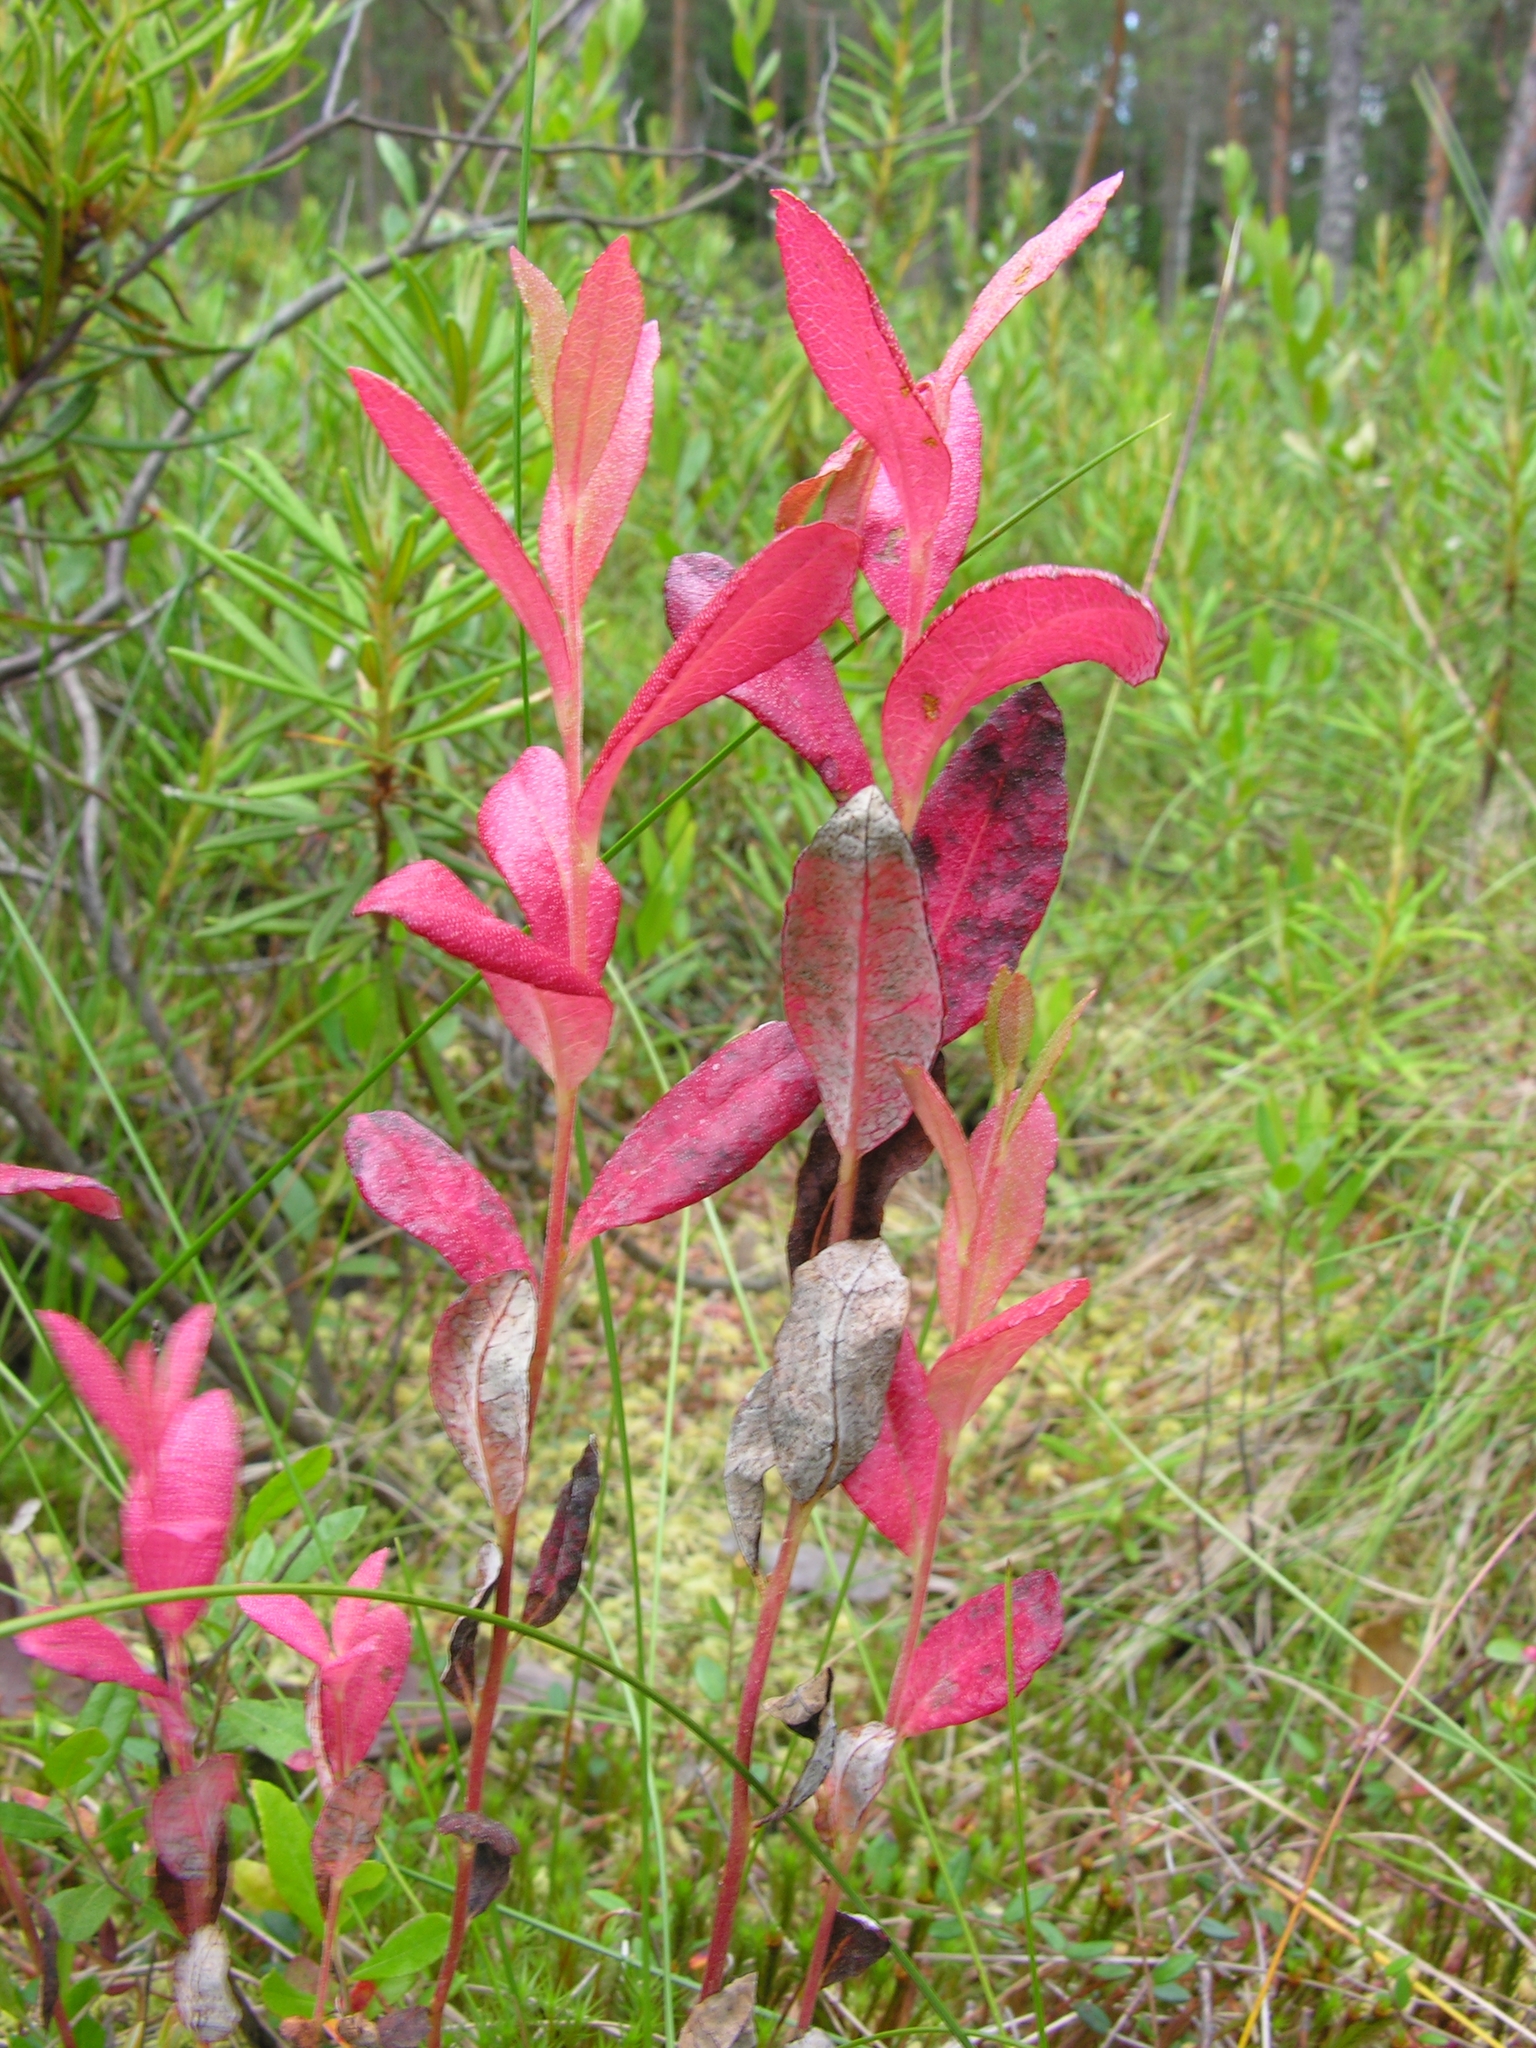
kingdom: Fungi
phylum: Basidiomycota
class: Exobasidiomycetes
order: Exobasidiales
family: Exobasidiaceae
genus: Exobasidium
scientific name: Exobasidium savilei
